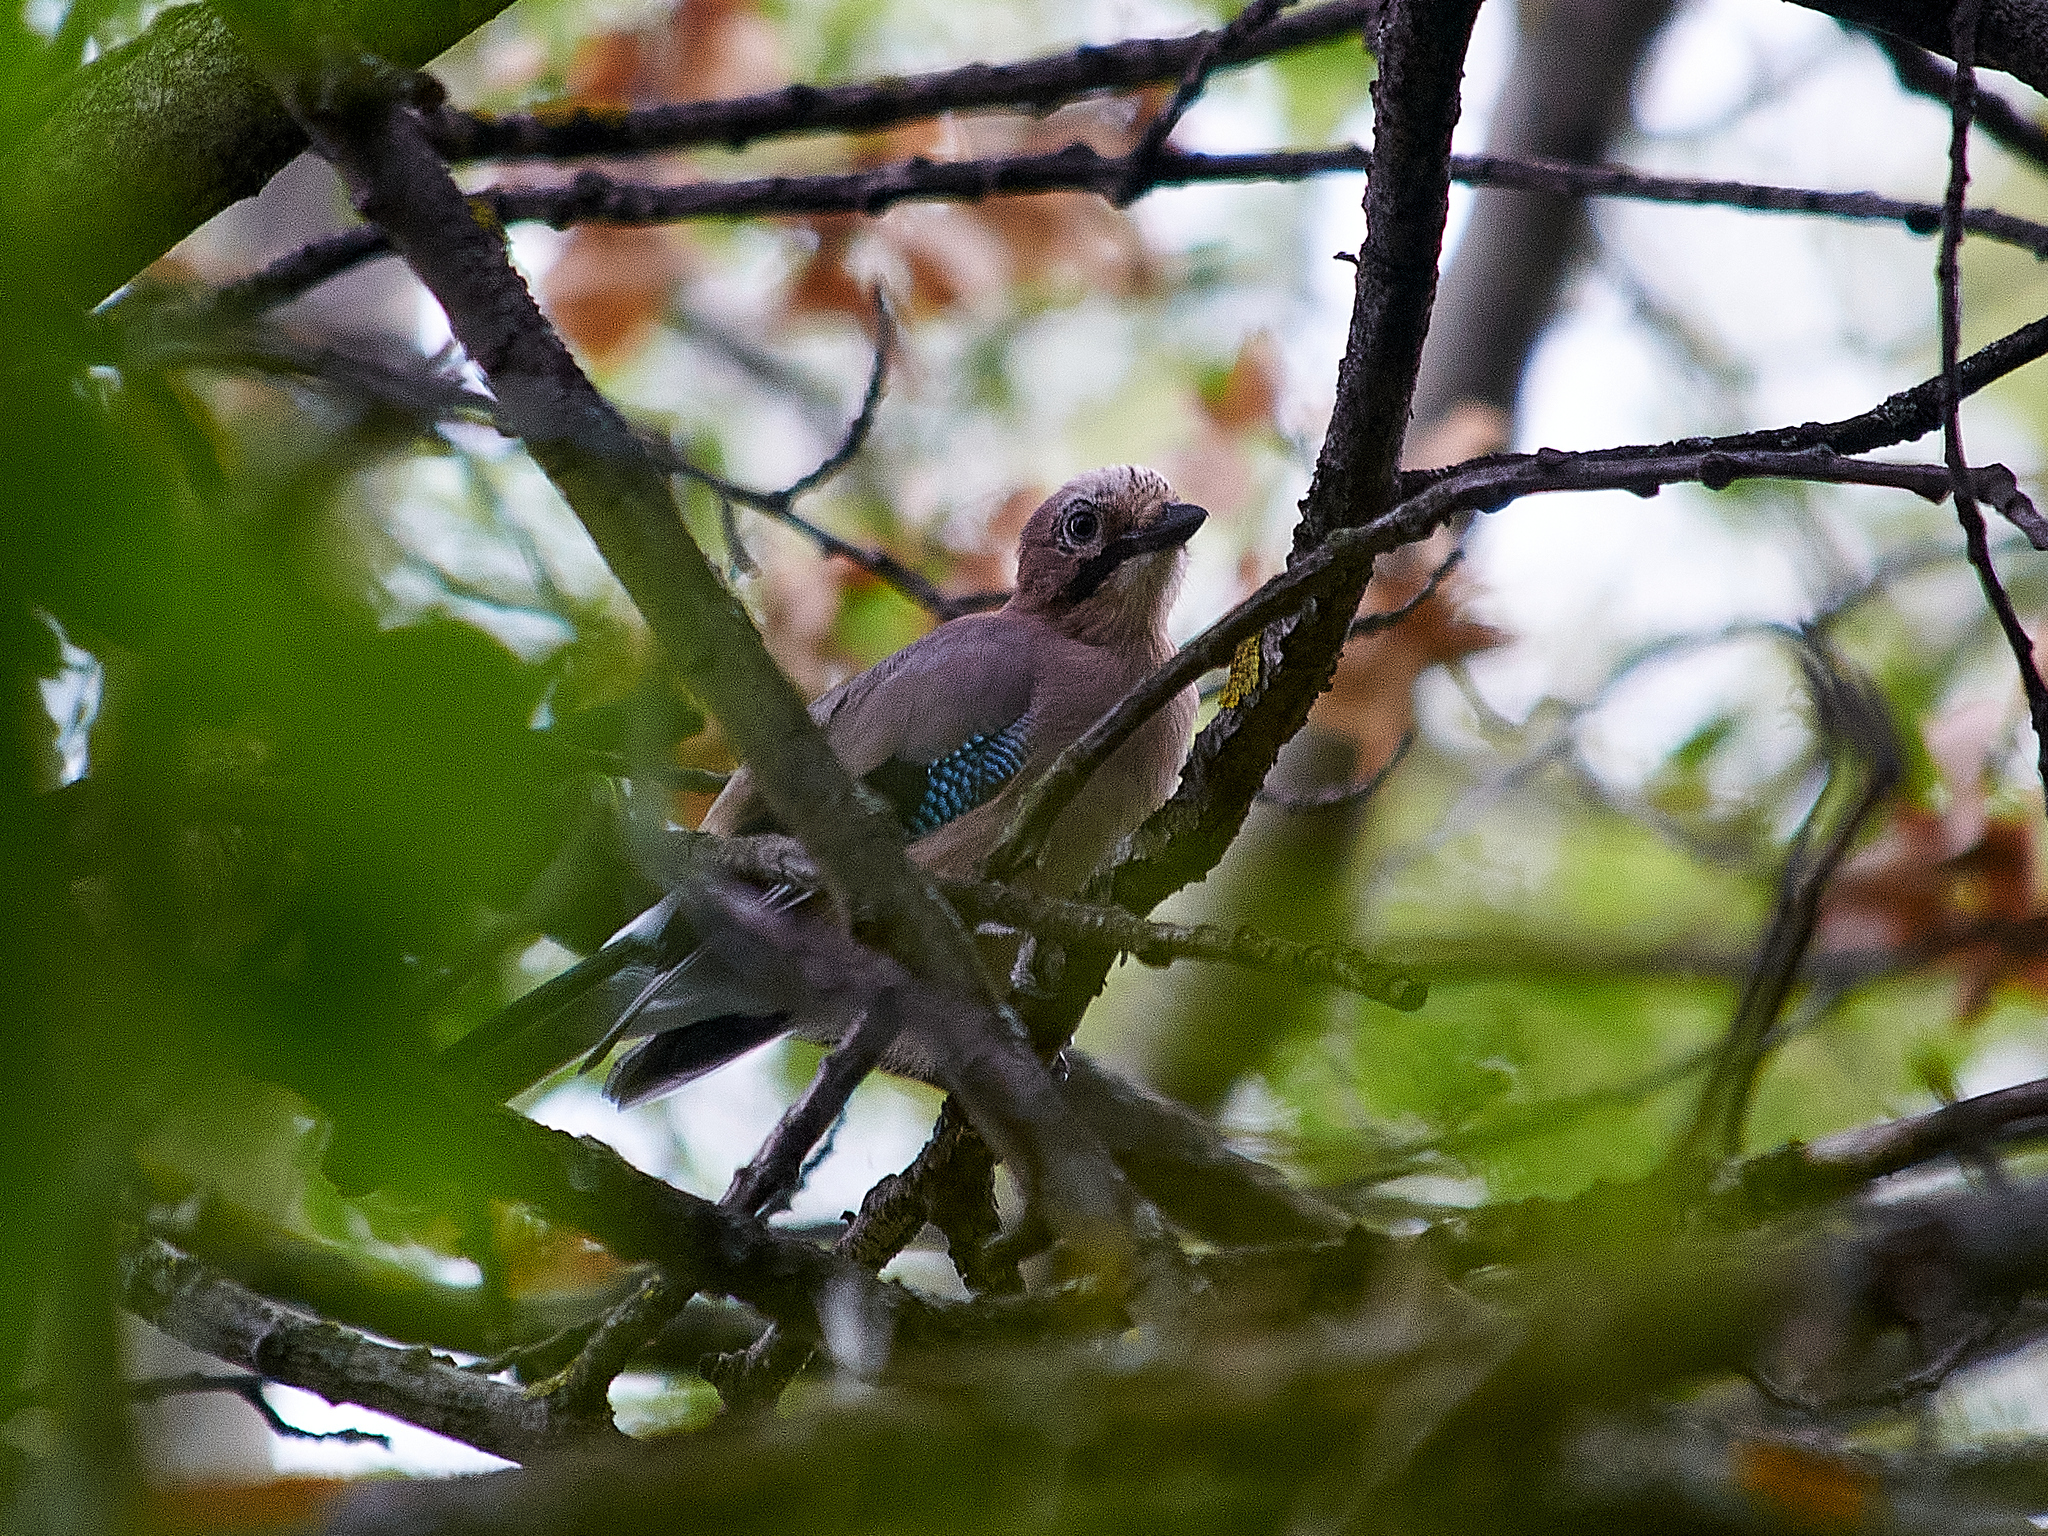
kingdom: Animalia
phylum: Chordata
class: Aves
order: Passeriformes
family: Corvidae
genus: Garrulus
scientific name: Garrulus glandarius
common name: Eurasian jay
